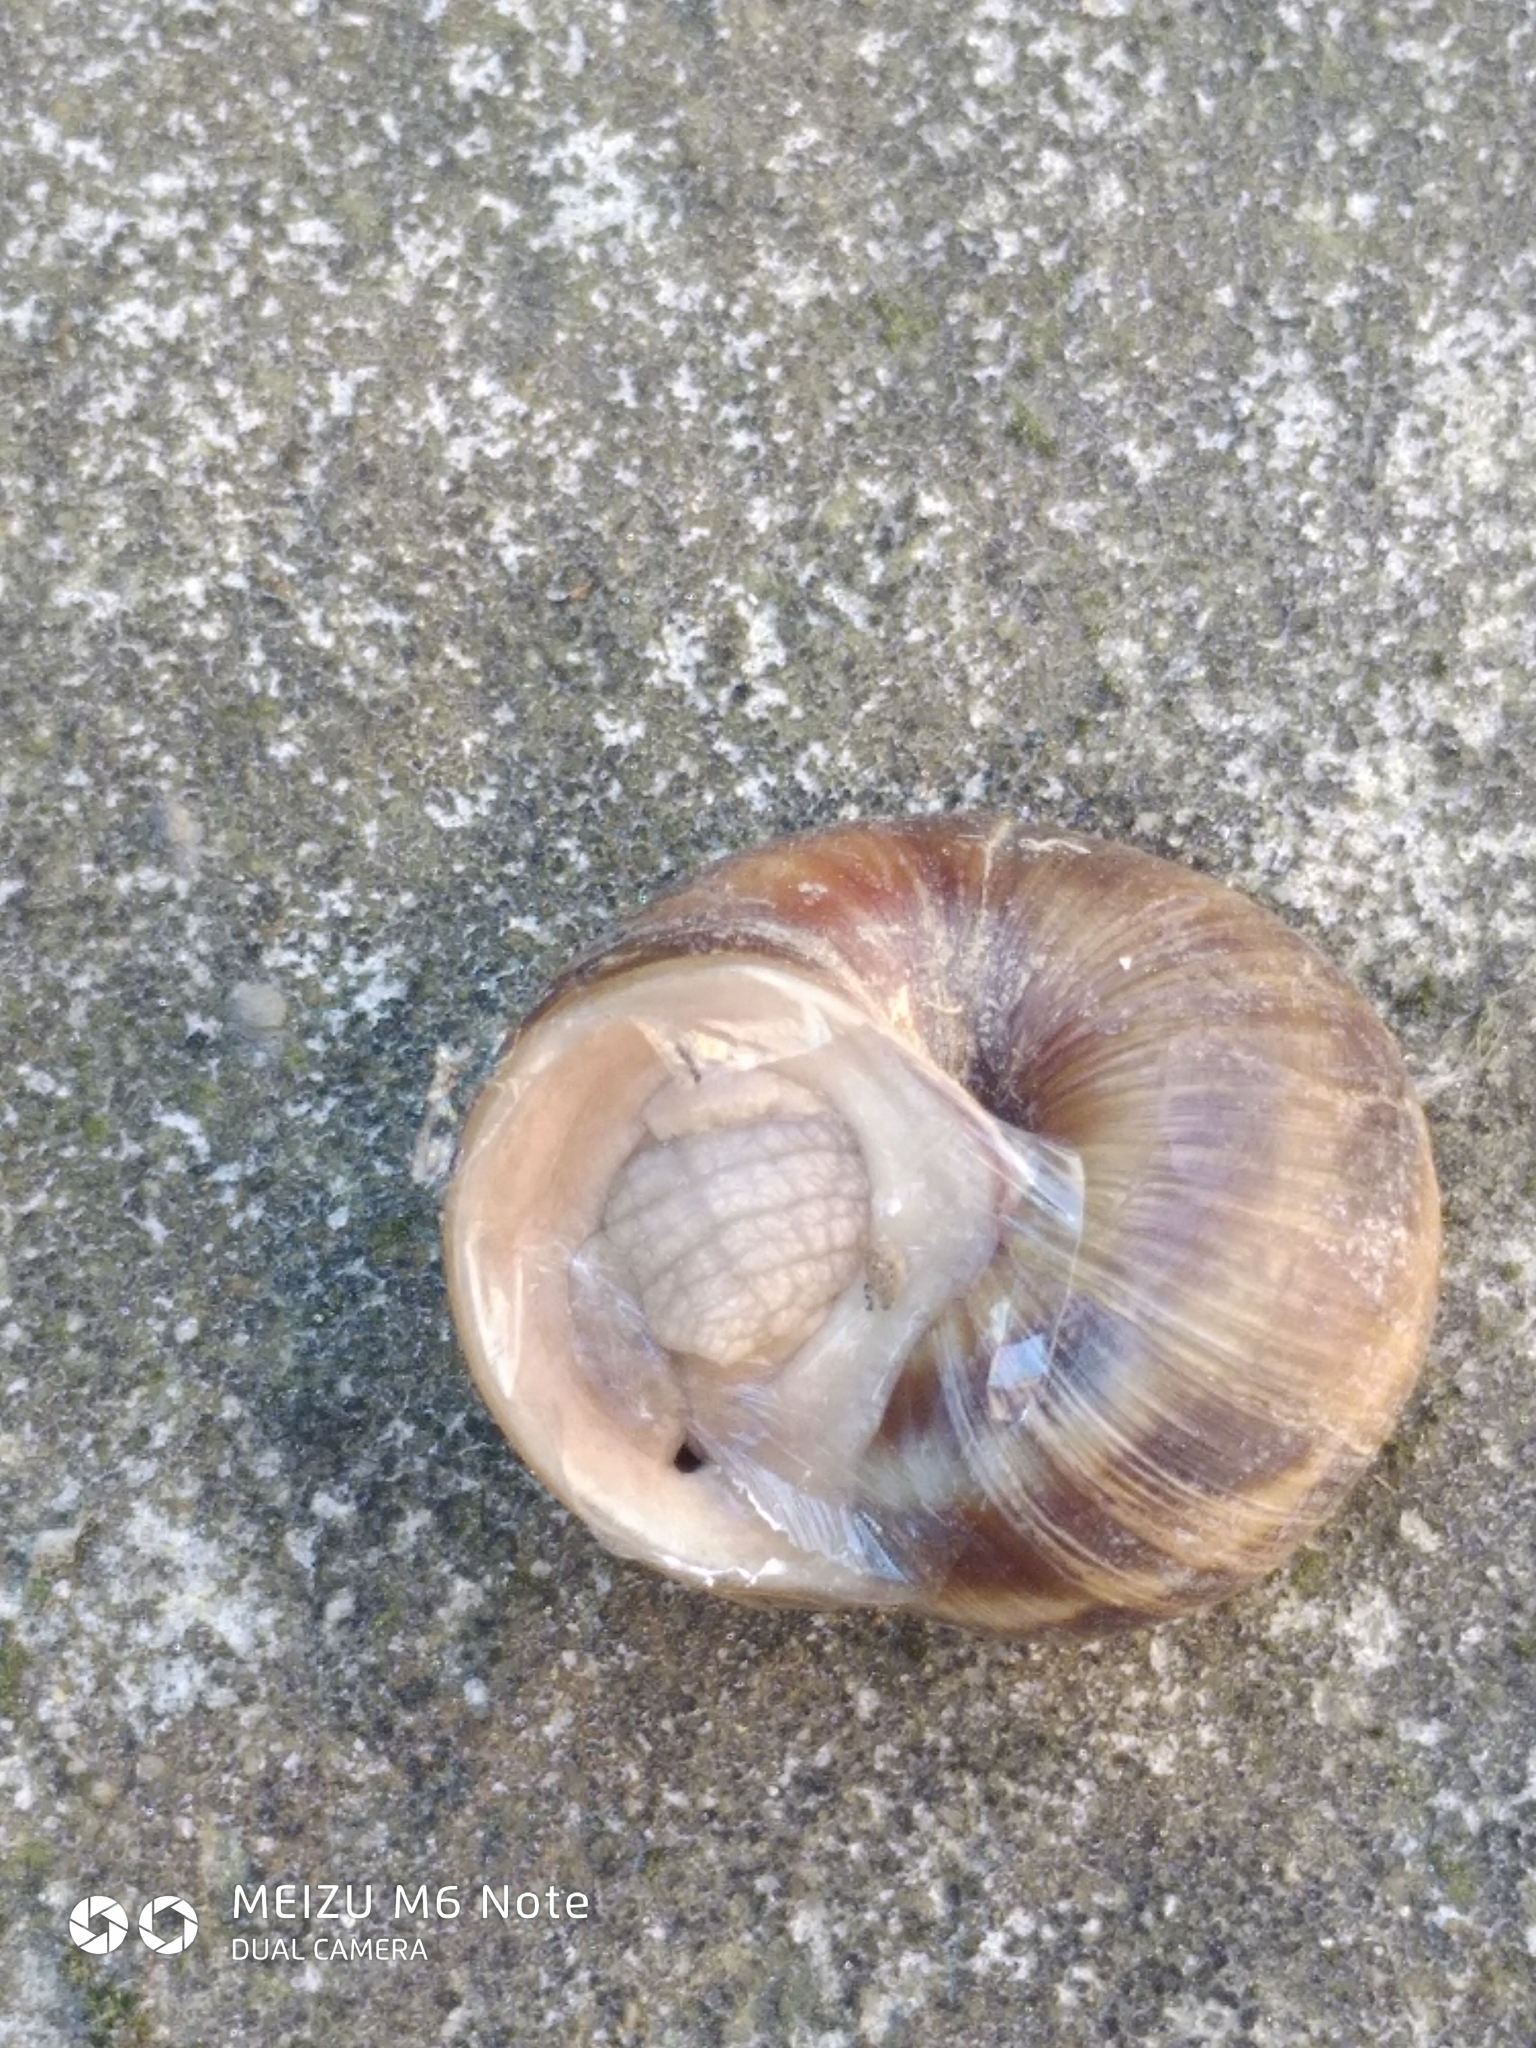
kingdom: Animalia
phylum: Mollusca
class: Gastropoda
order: Stylommatophora
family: Helicidae
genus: Helix
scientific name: Helix pomatia
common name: Roman snail
